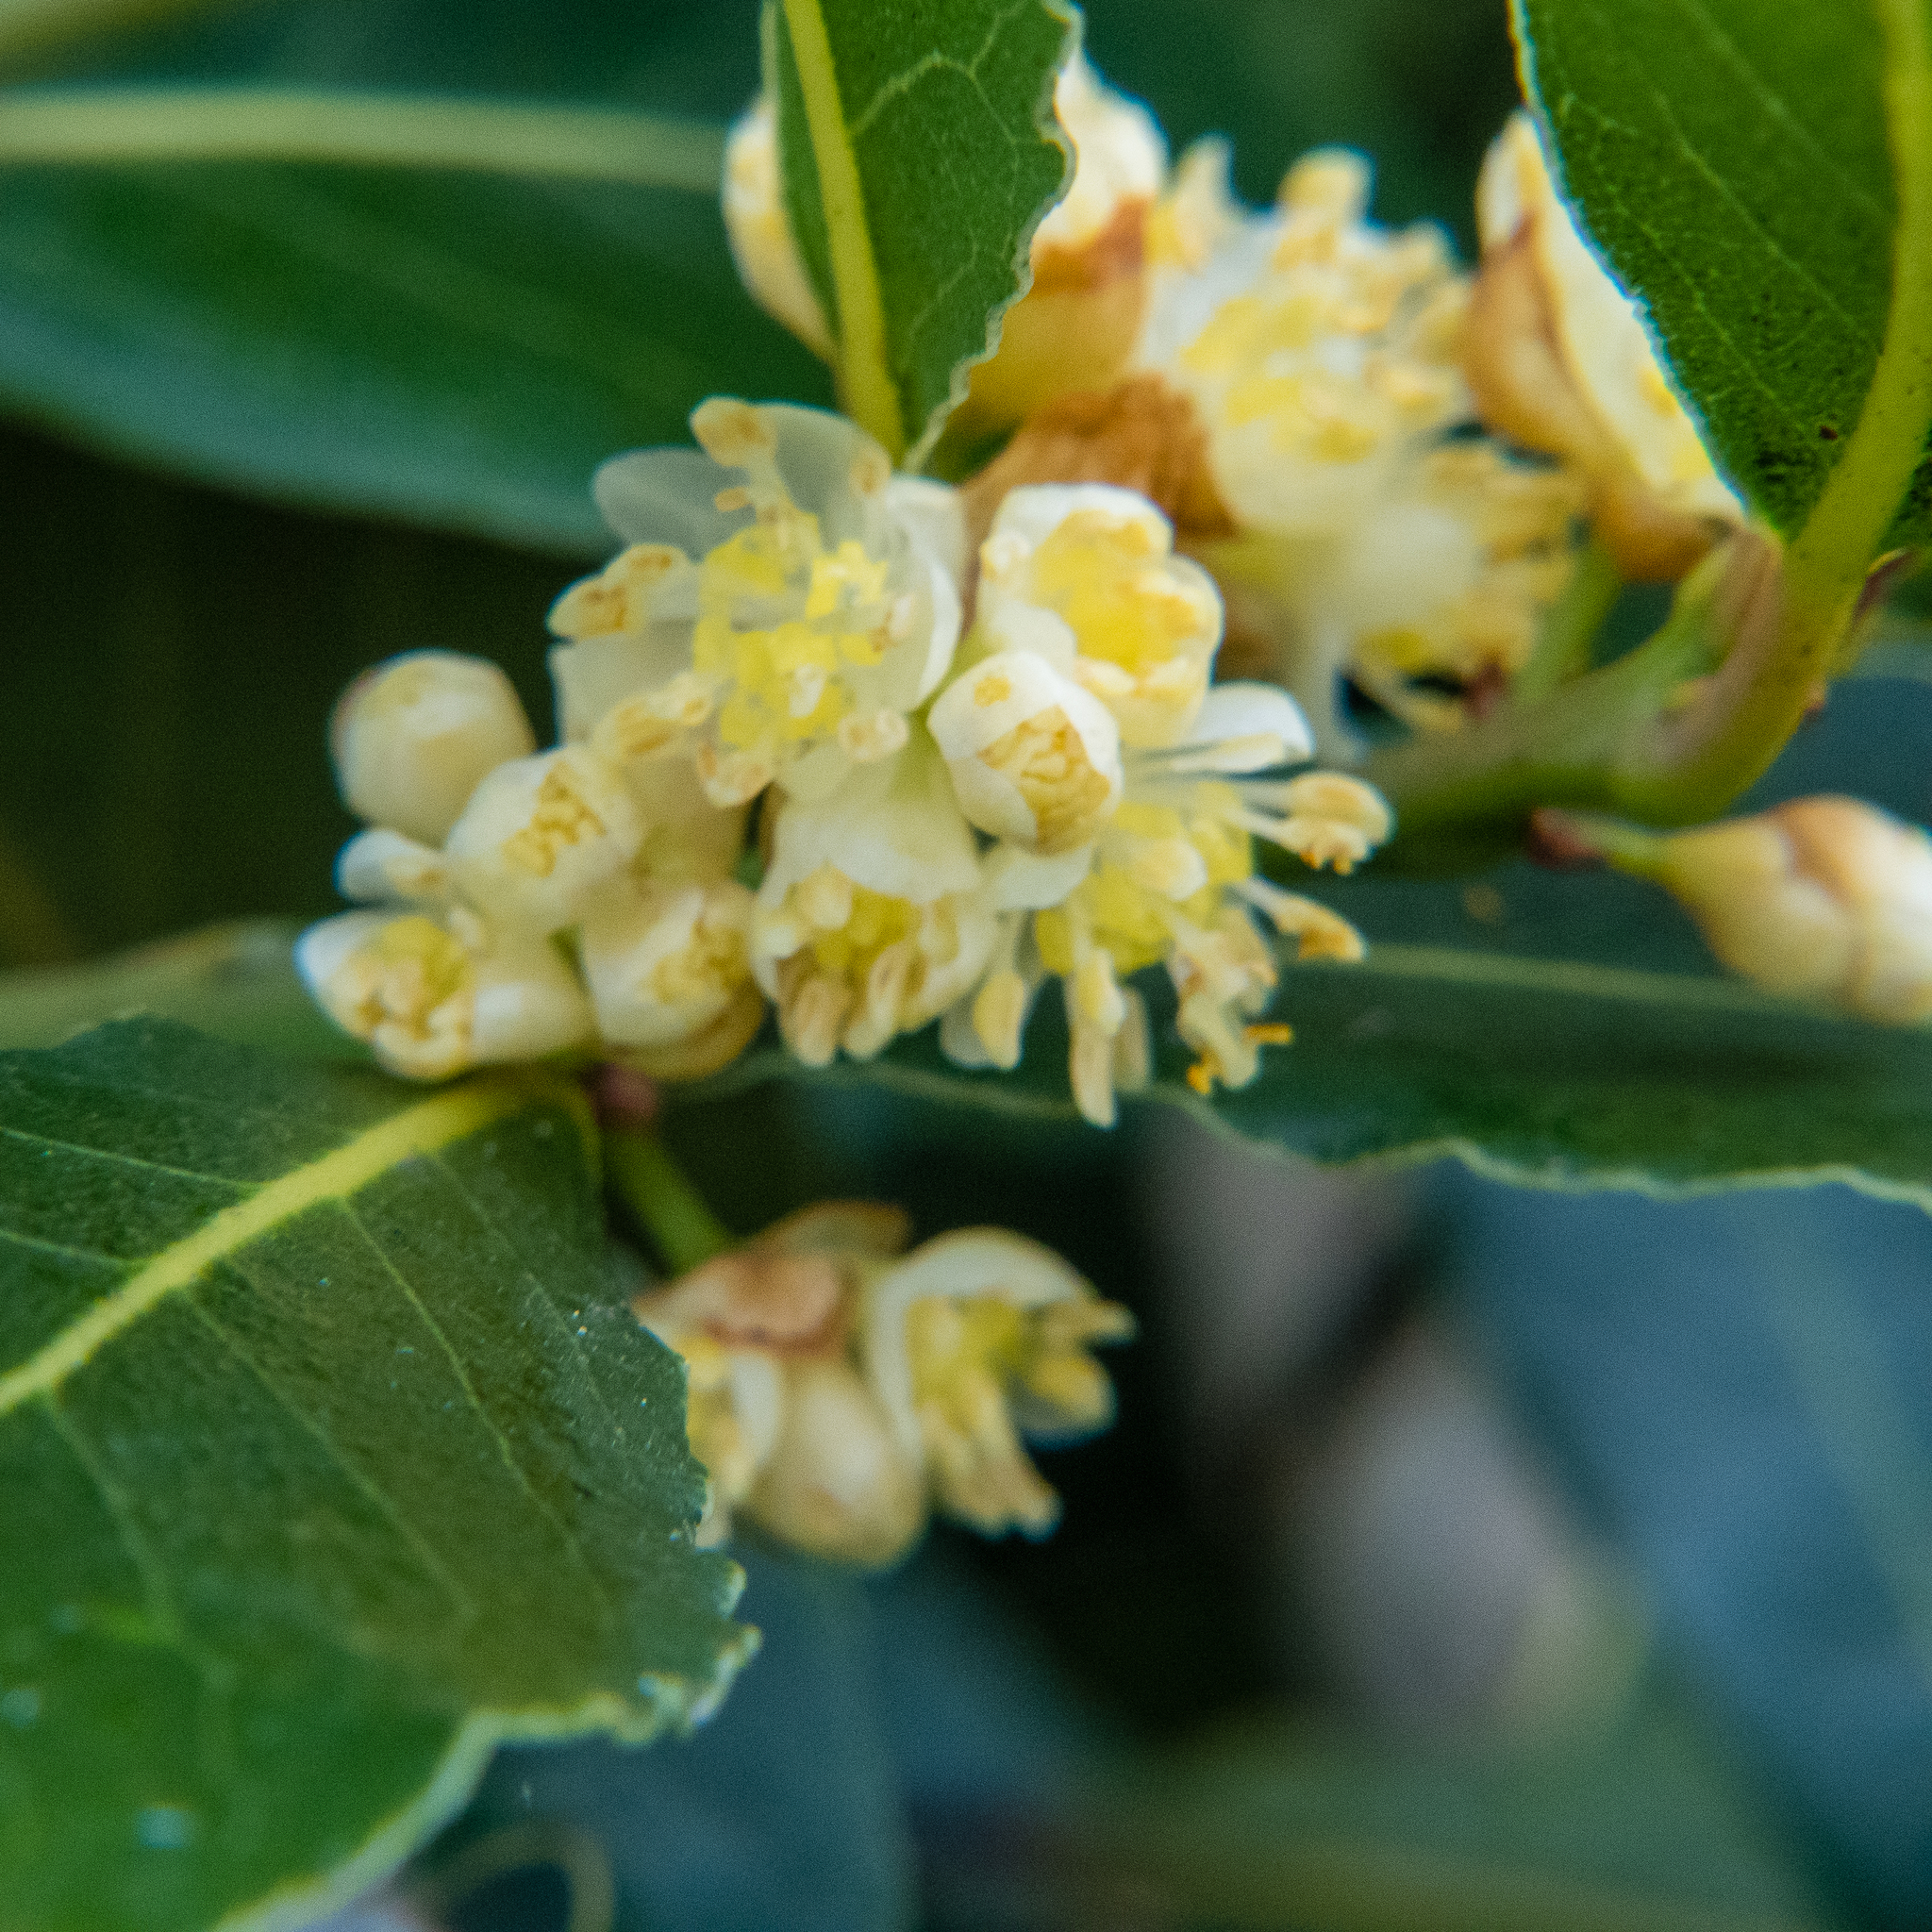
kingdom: Plantae
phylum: Tracheophyta
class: Magnoliopsida
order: Laurales
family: Lauraceae
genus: Laurus
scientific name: Laurus nobilis
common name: Bay
